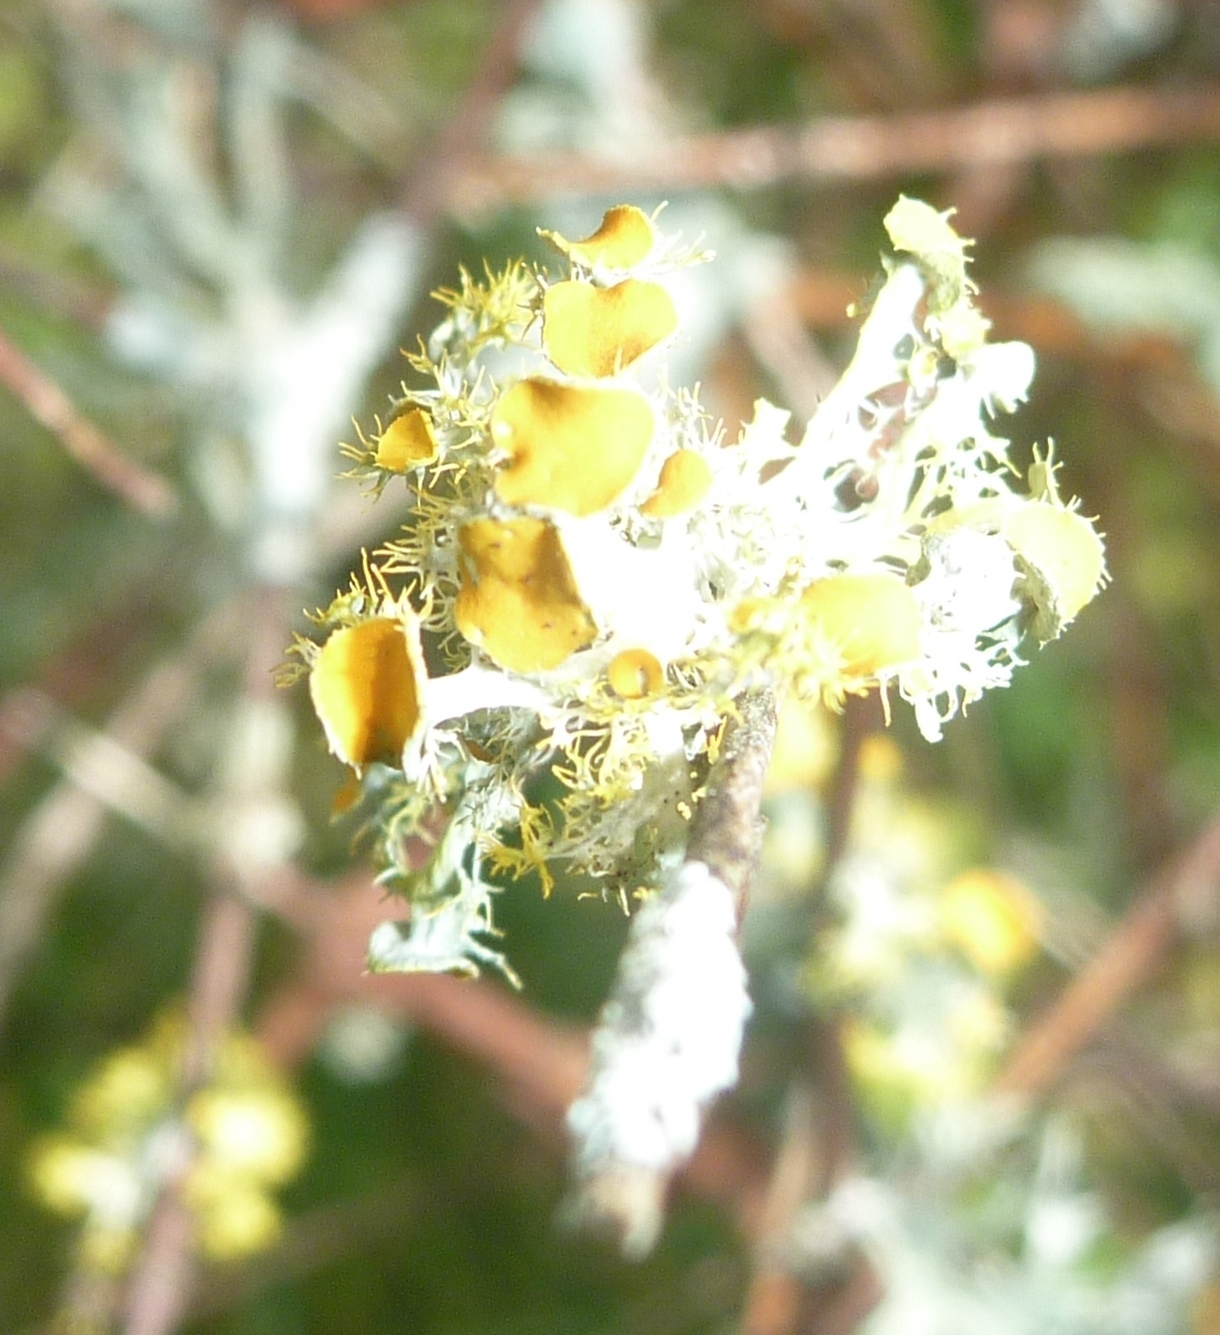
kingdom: Fungi
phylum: Ascomycota
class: Lecanoromycetes
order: Teloschistales
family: Teloschistaceae
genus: Niorma
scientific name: Niorma chrysophthalma
